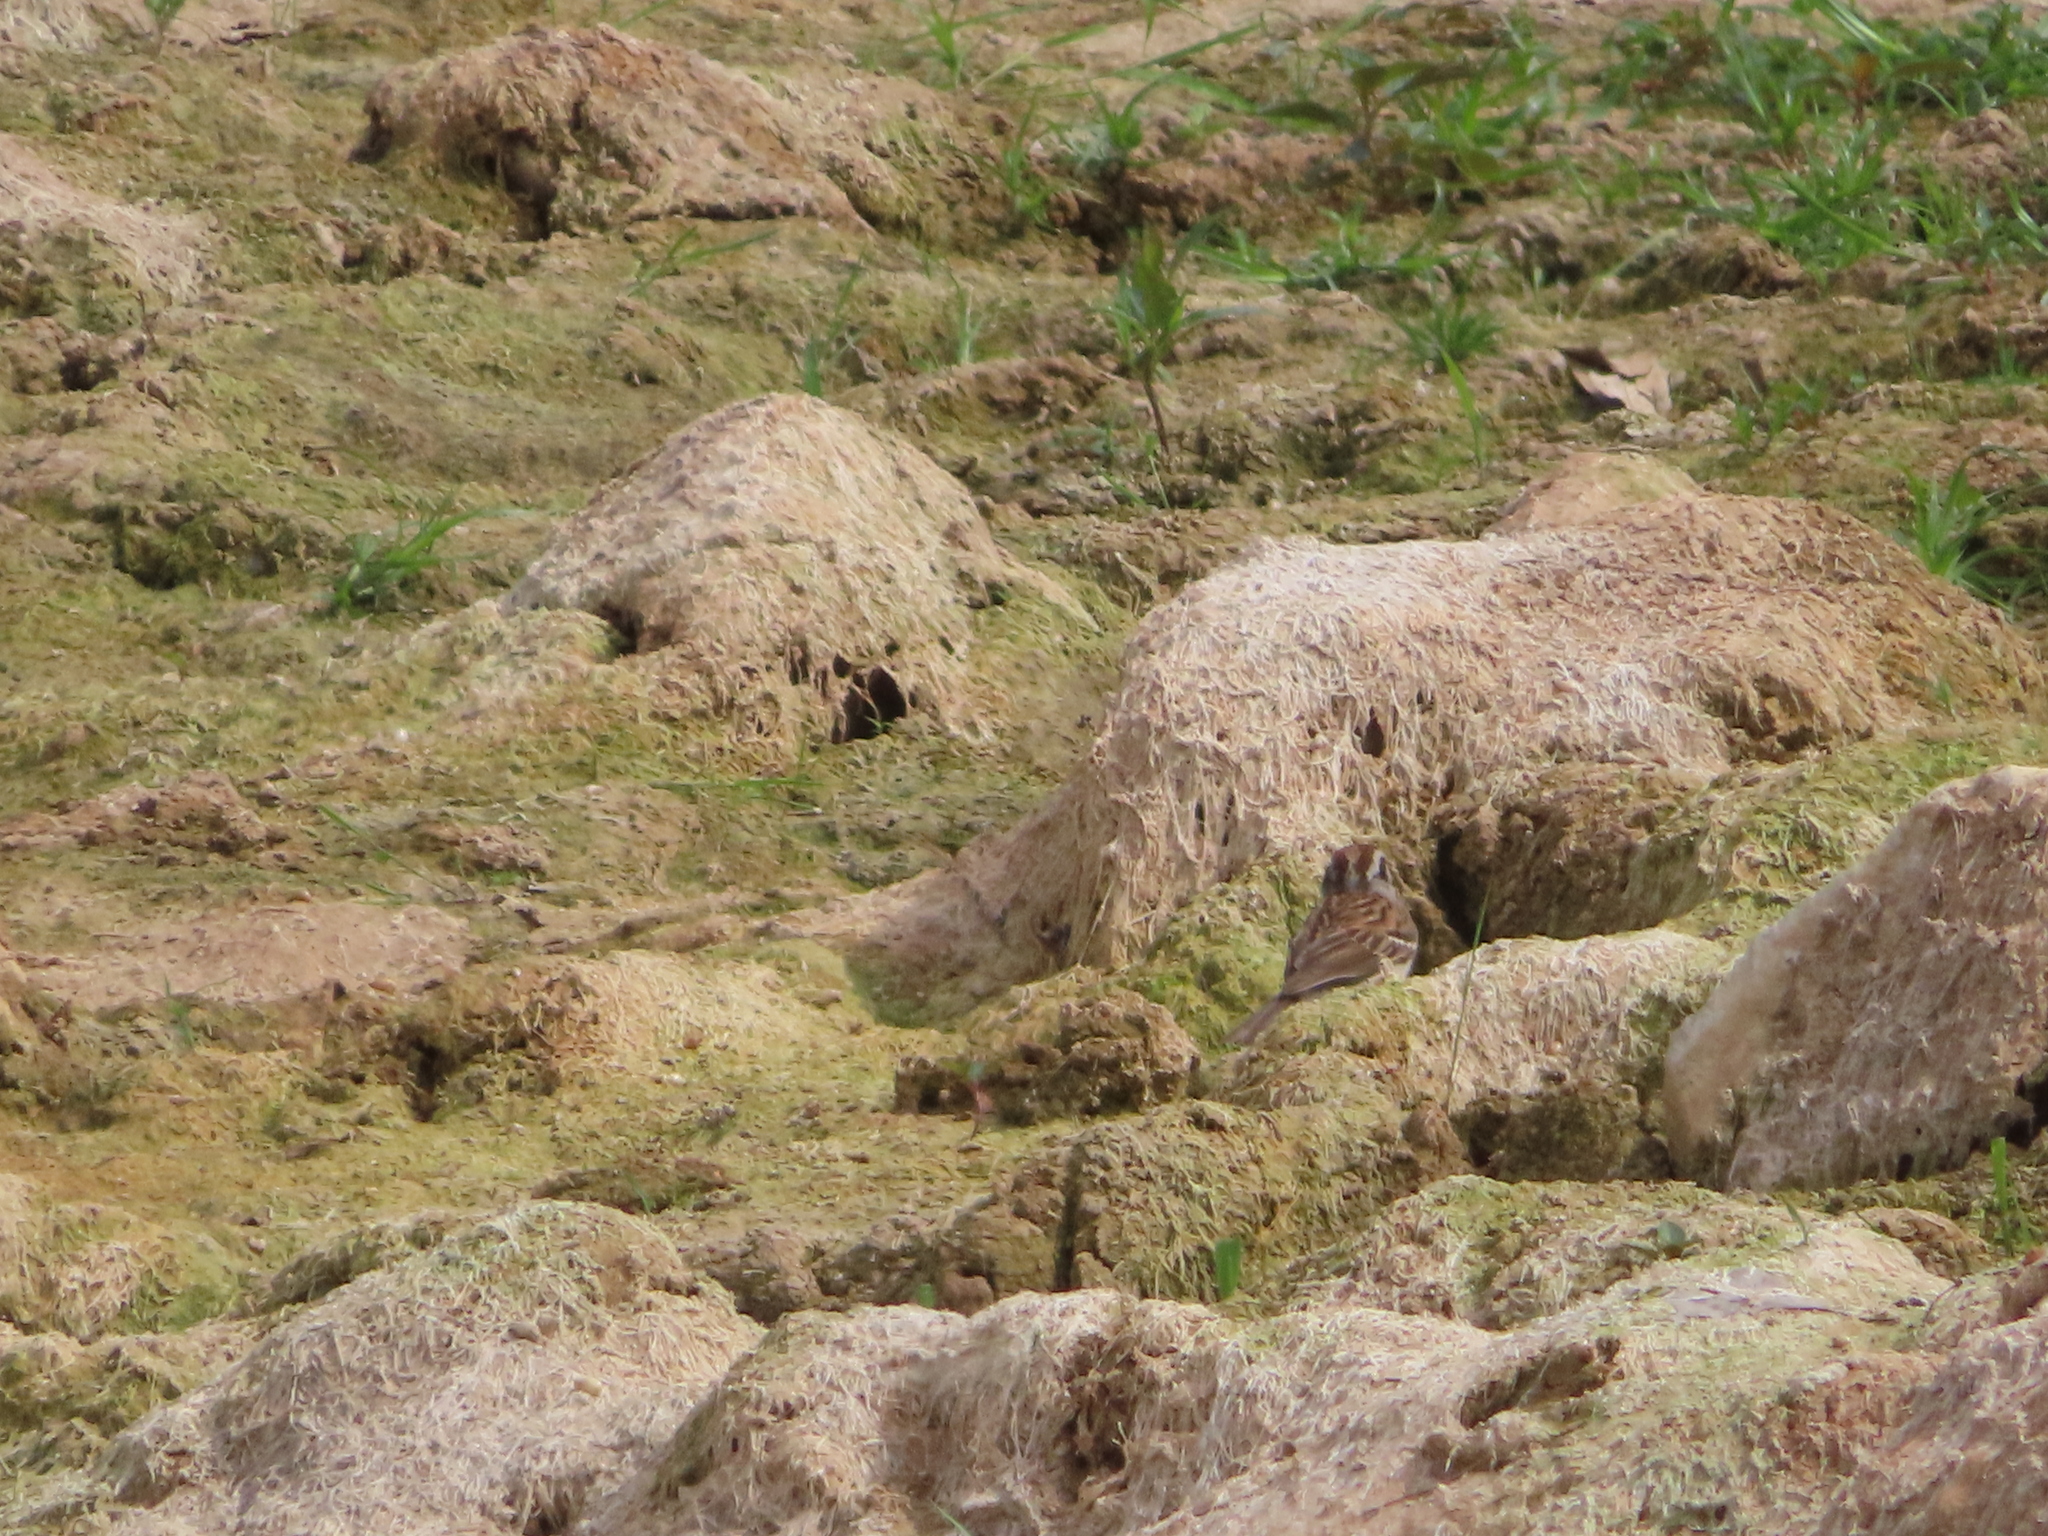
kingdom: Animalia
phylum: Chordata
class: Aves
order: Passeriformes
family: Passerellidae
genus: Melospiza
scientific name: Melospiza melodia
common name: Song sparrow
